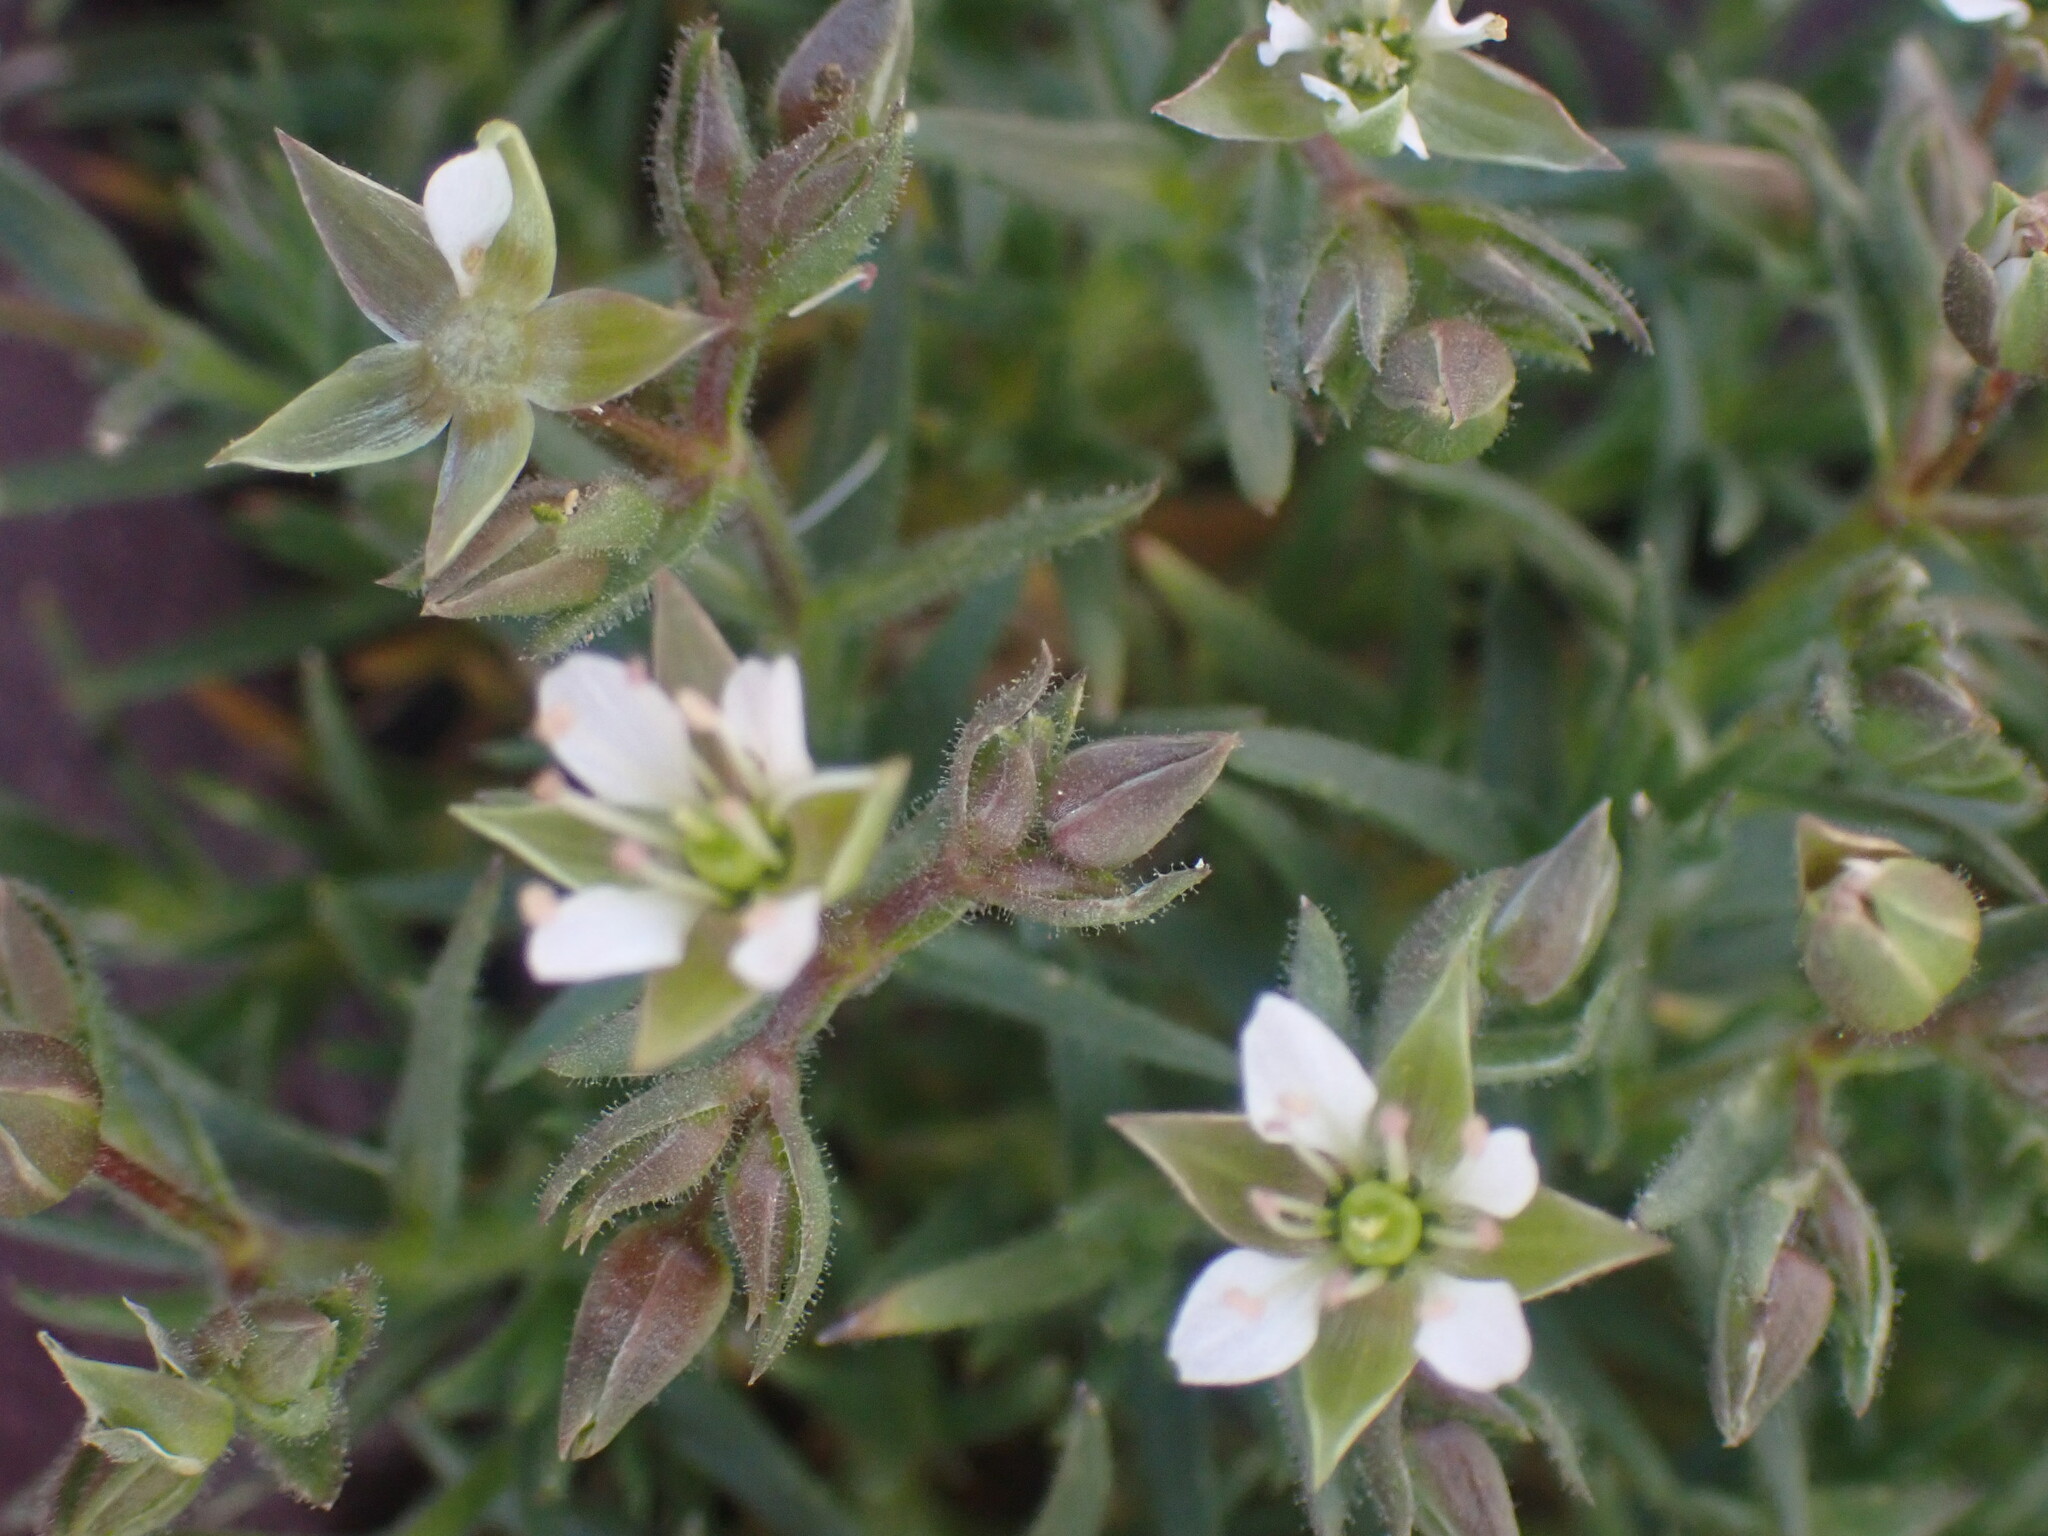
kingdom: Plantae
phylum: Tracheophyta
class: Magnoliopsida
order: Caryophyllales
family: Caryophyllaceae
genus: Sabulina
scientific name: Sabulina nuttallii
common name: Nuttall's stitchwort
